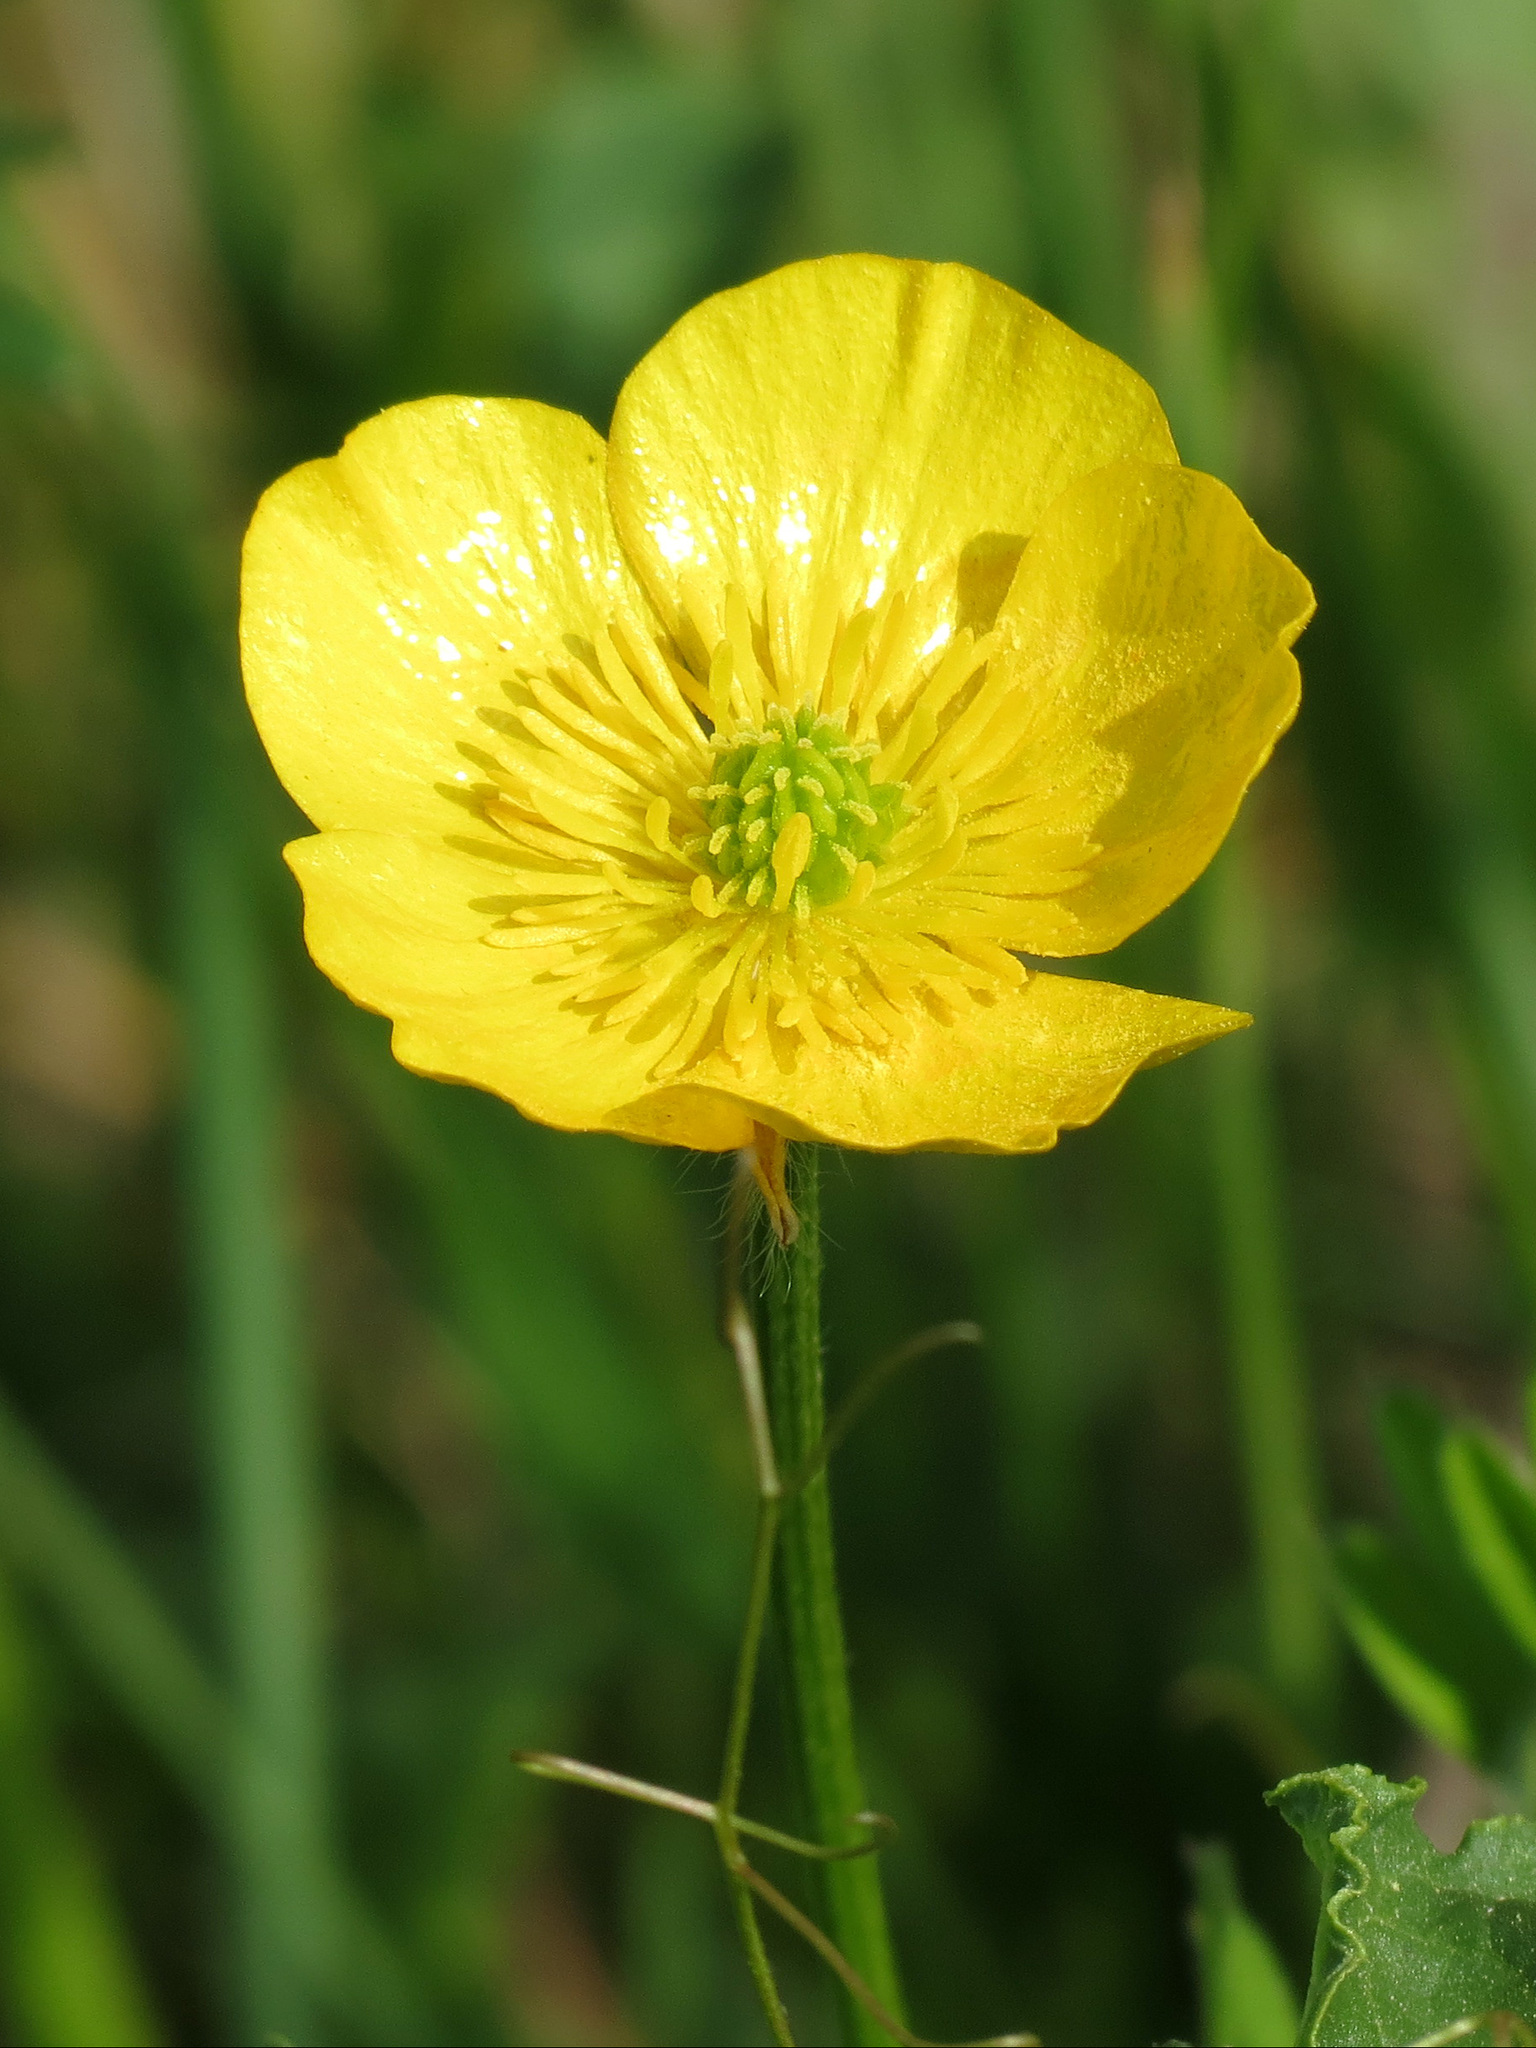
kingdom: Plantae
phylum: Tracheophyta
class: Magnoliopsida
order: Ranunculales
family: Ranunculaceae
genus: Ranunculus
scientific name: Ranunculus acris
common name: Meadow buttercup
